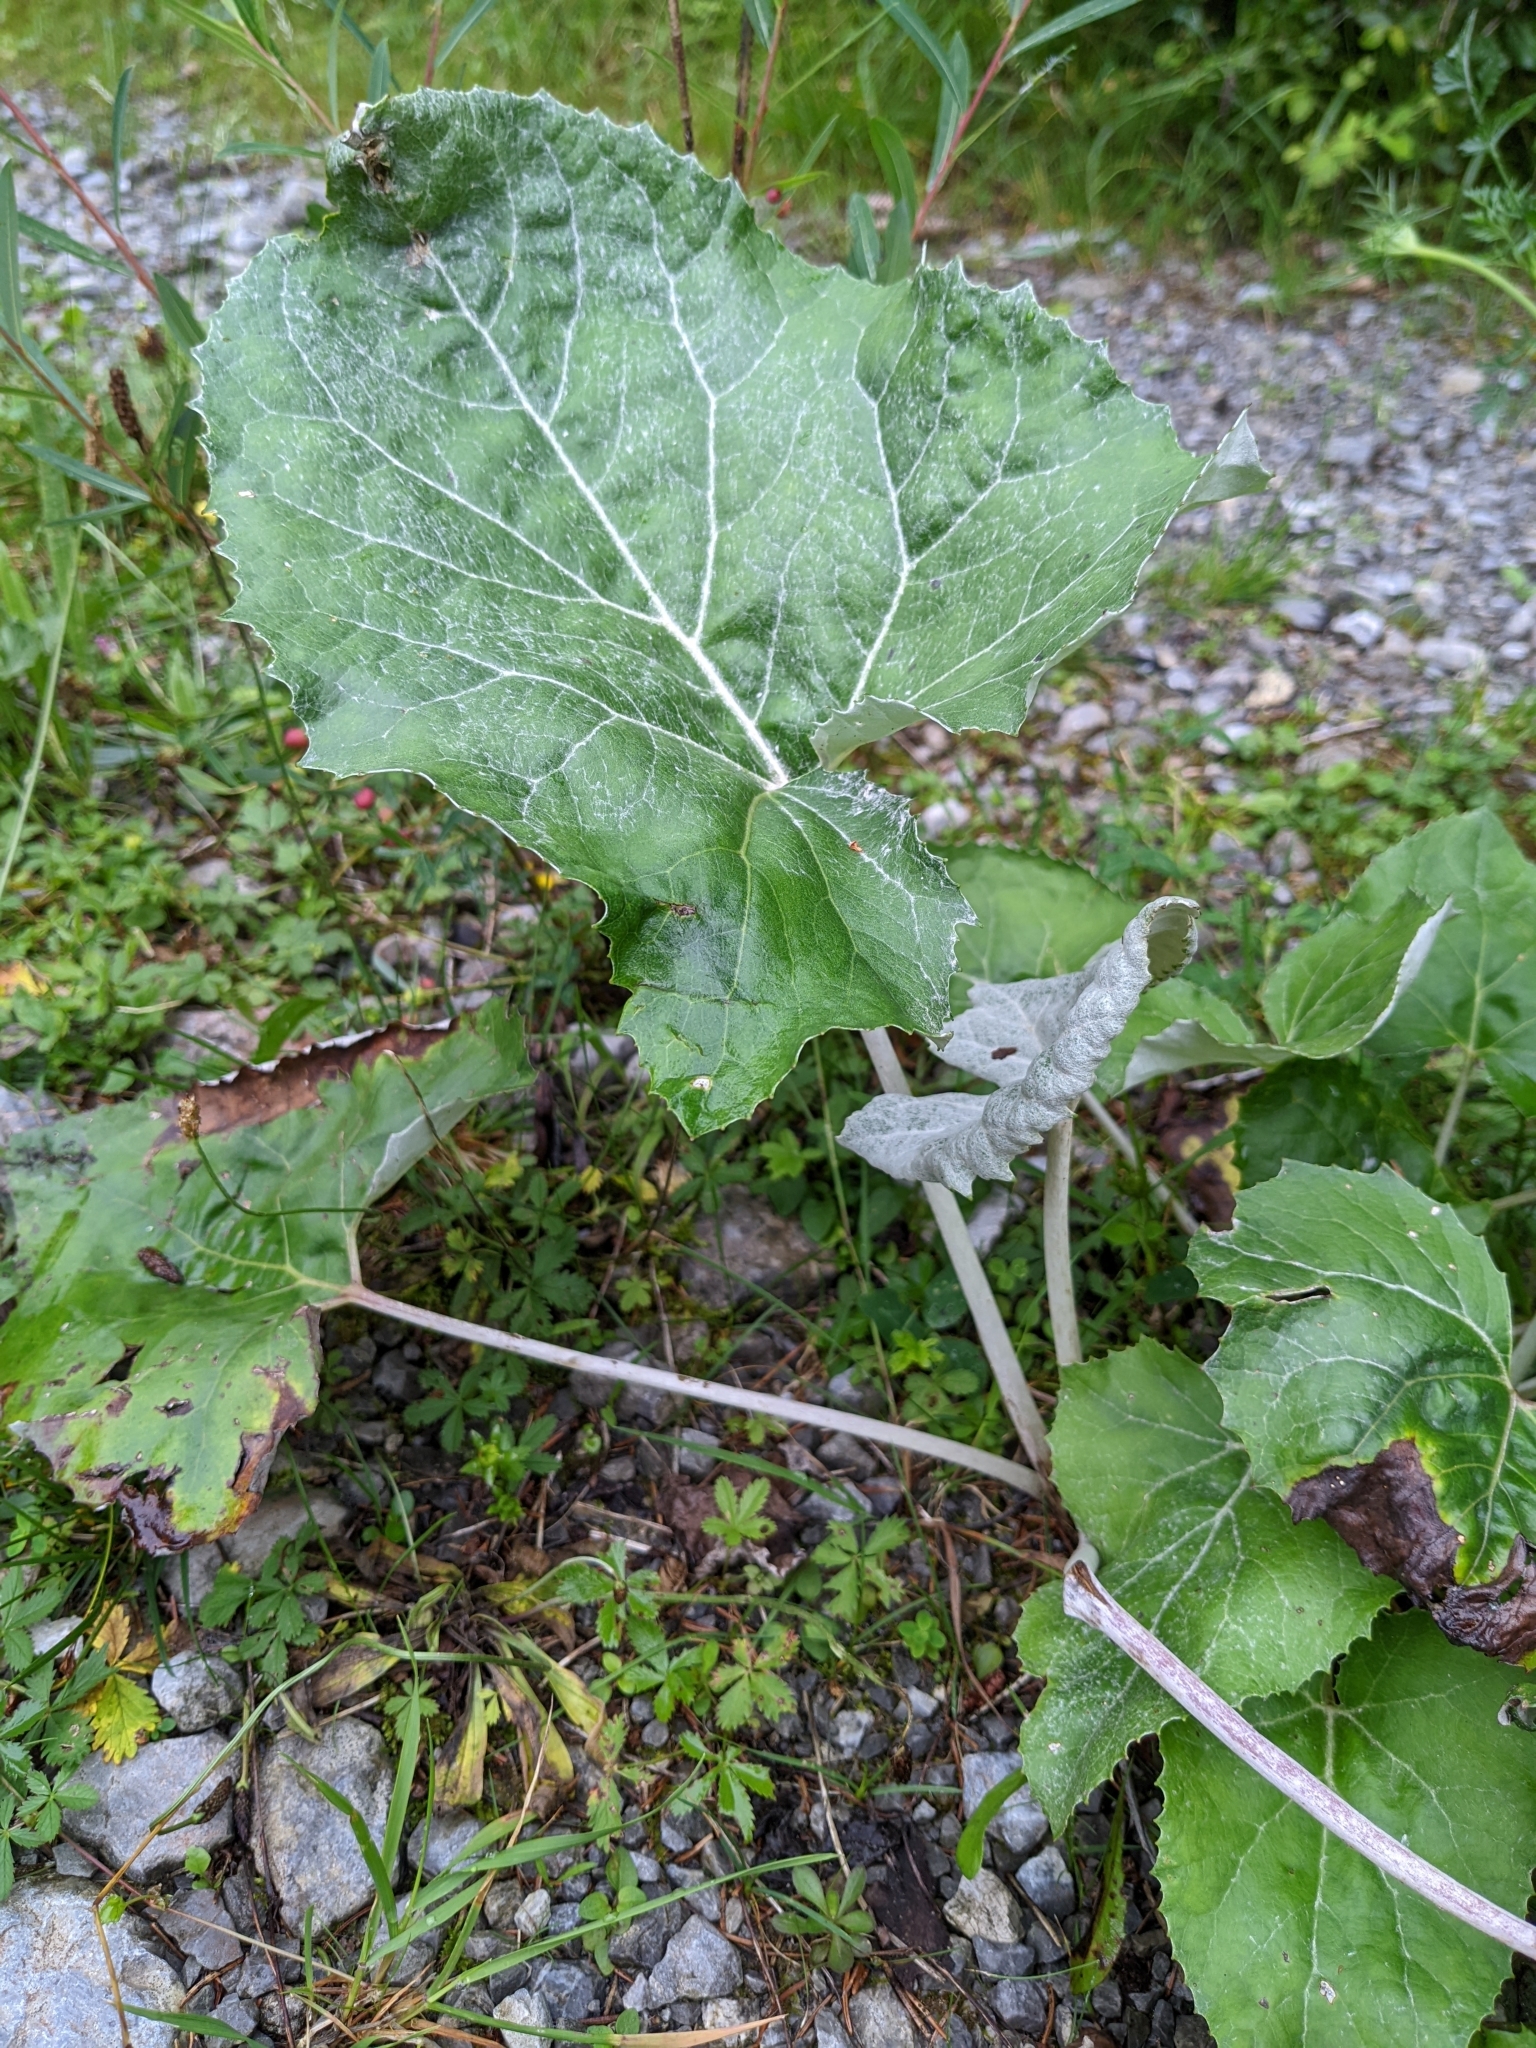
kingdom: Plantae
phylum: Tracheophyta
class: Magnoliopsida
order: Asterales
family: Asteraceae
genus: Petasites
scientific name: Petasites paradoxus
